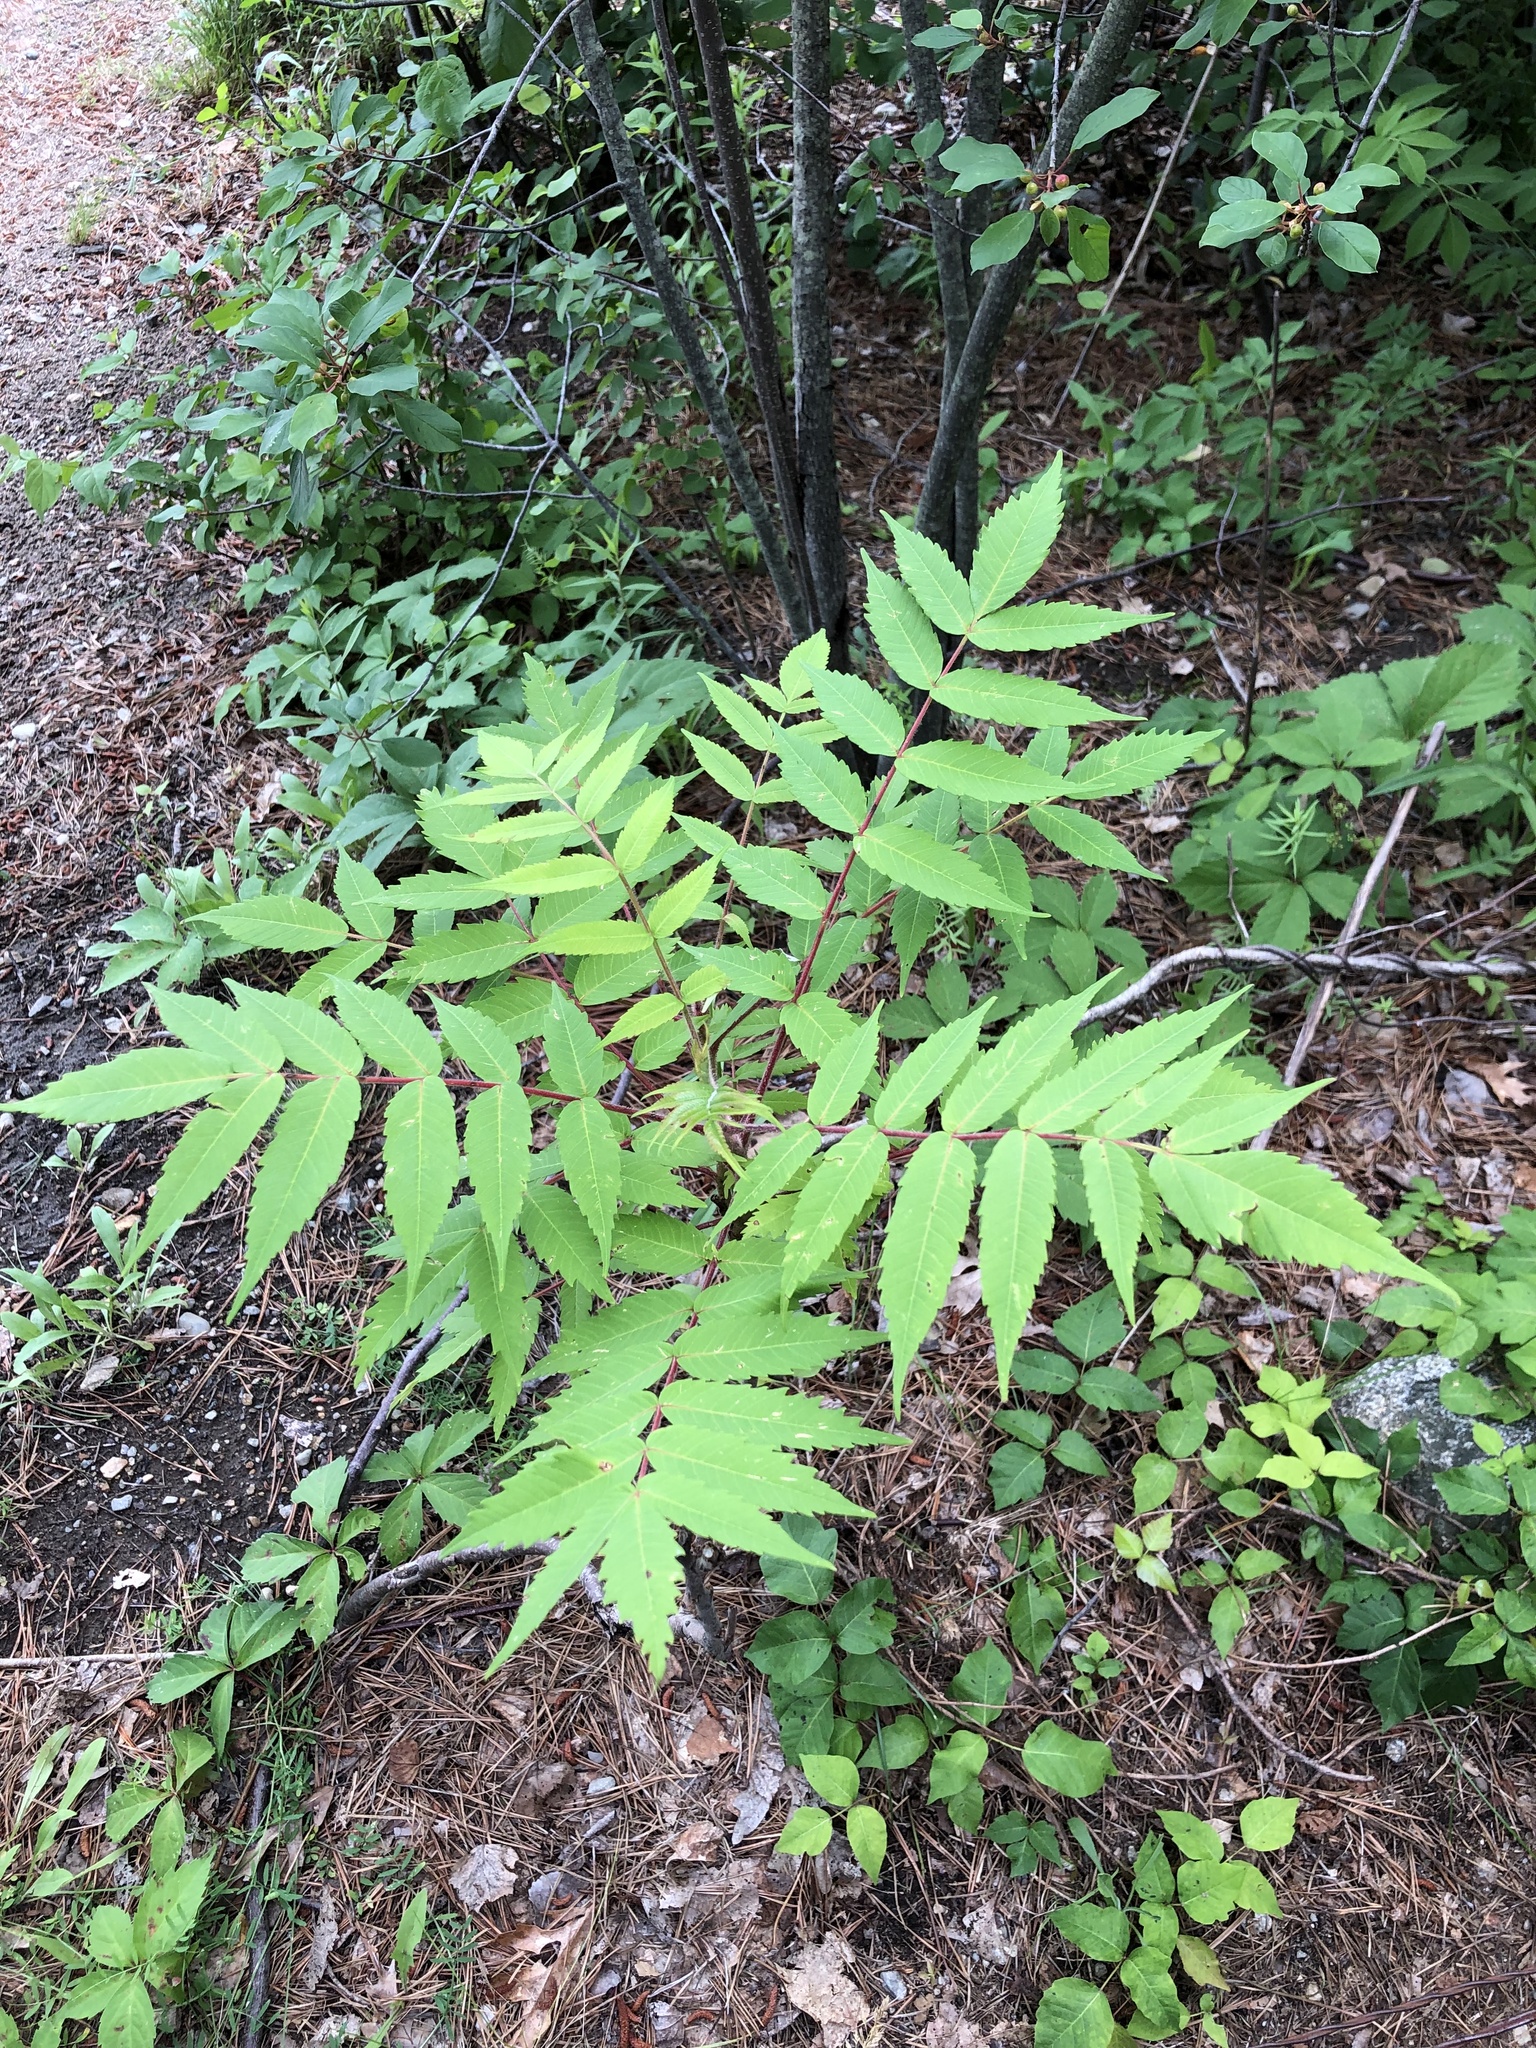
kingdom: Plantae
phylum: Tracheophyta
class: Magnoliopsida
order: Sapindales
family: Anacardiaceae
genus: Rhus
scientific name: Rhus typhina
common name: Staghorn sumac
